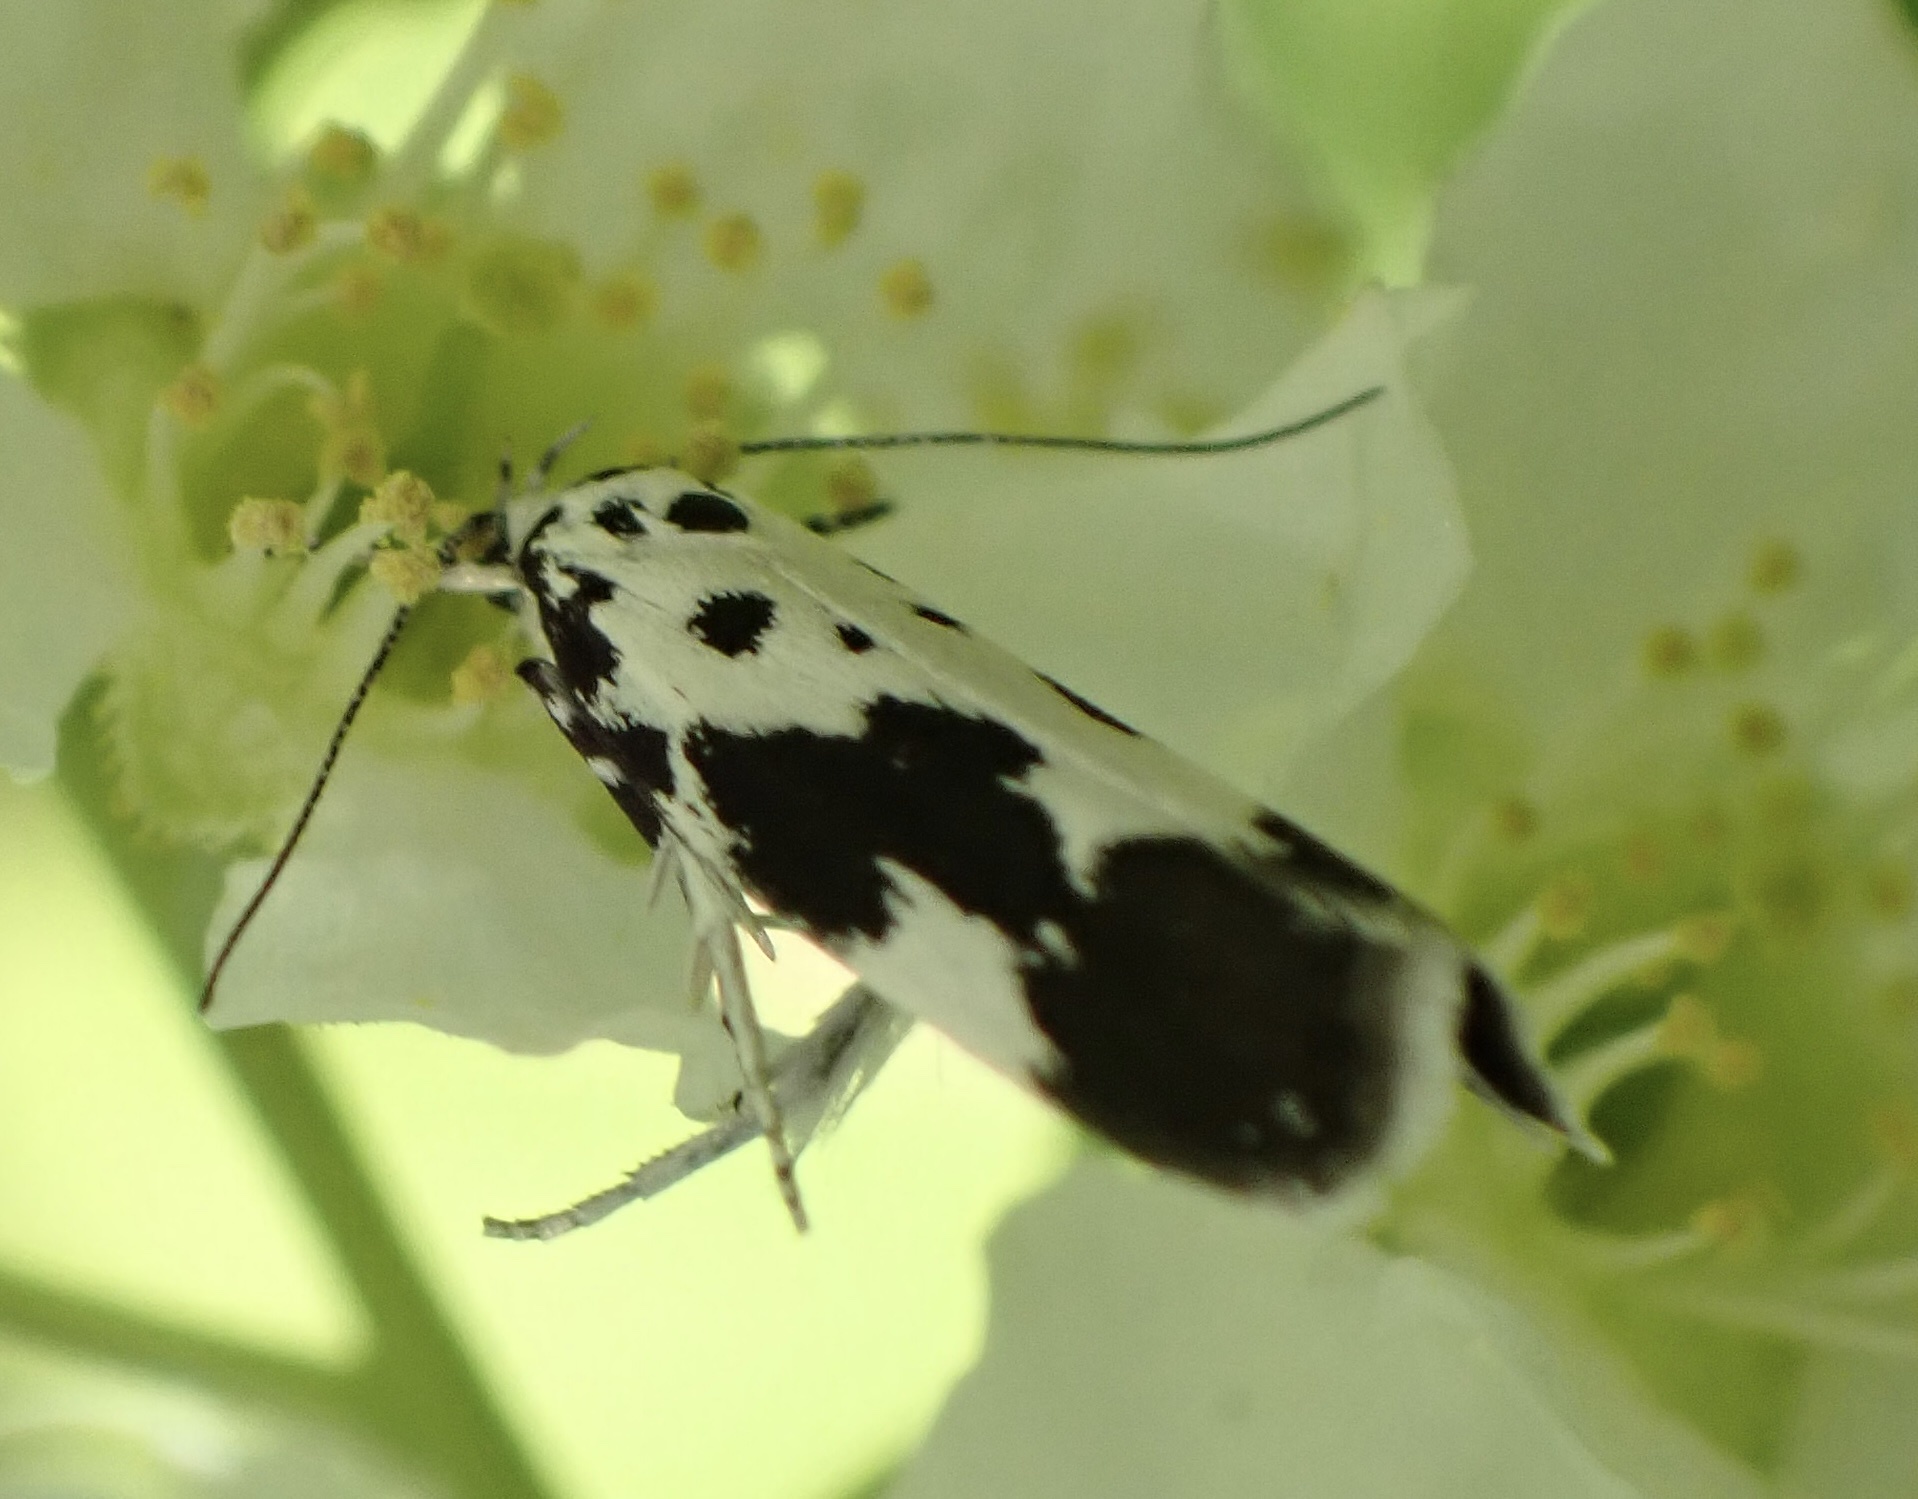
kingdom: Animalia
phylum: Arthropoda
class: Insecta
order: Lepidoptera
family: Ethmiidae
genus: Ethmia
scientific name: Ethmia quadrillella
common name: Comfrey ermel
